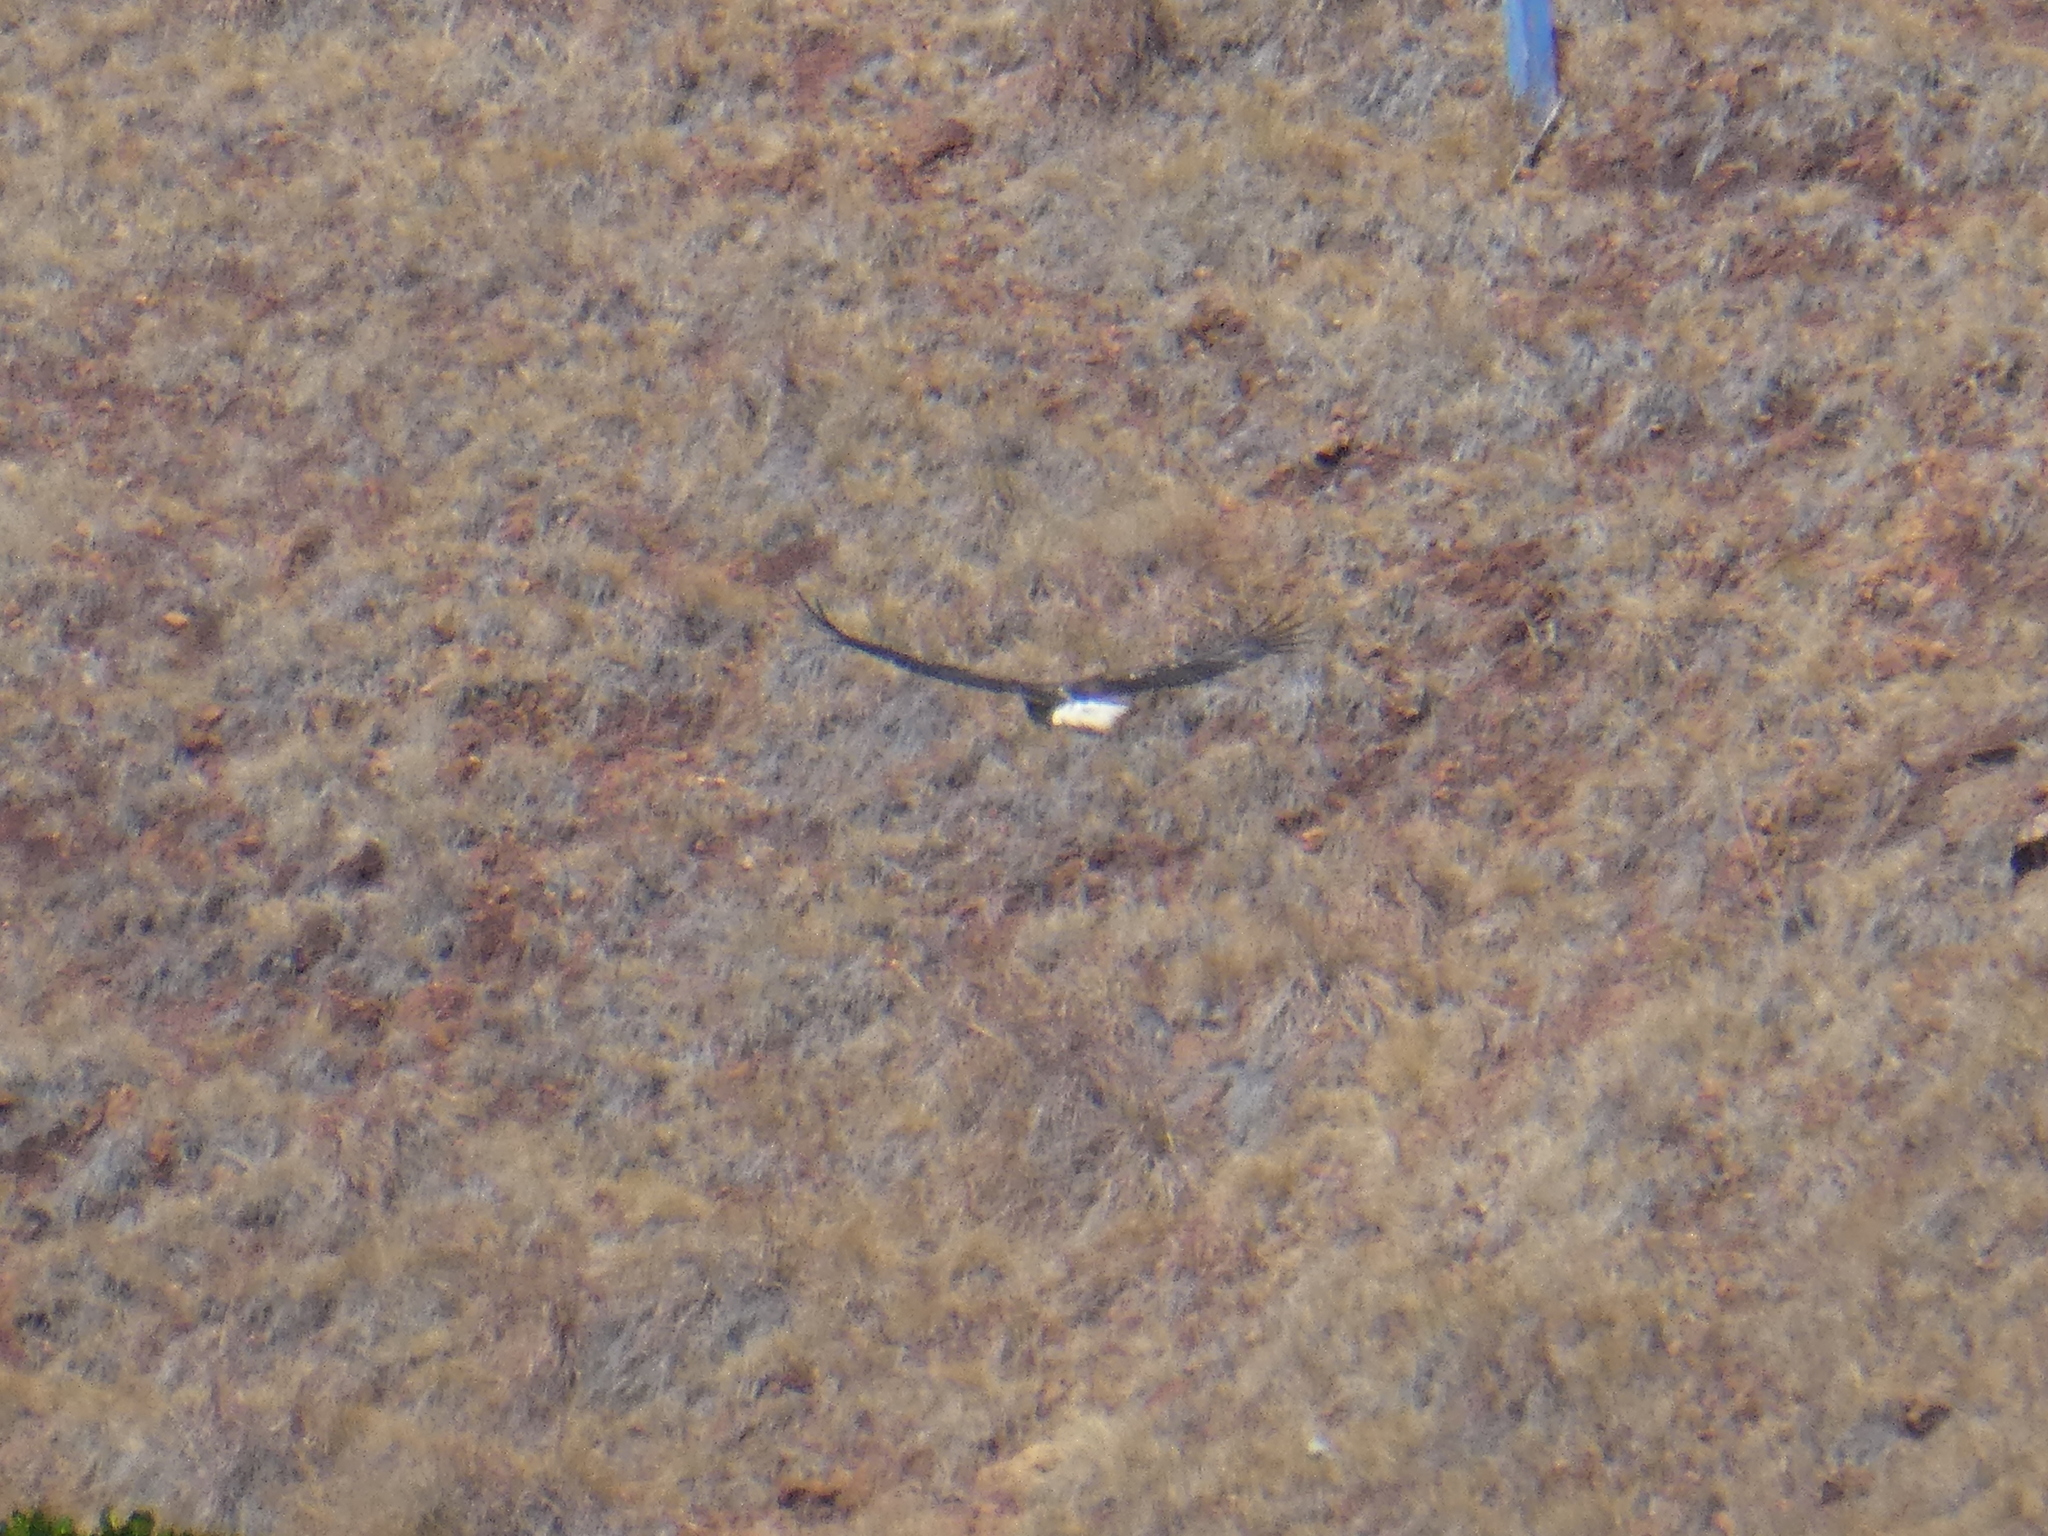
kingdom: Animalia
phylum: Chordata
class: Aves
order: Accipitriformes
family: Accipitridae
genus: Haliaeetus
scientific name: Haliaeetus leucogaster
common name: White-bellied sea eagle
